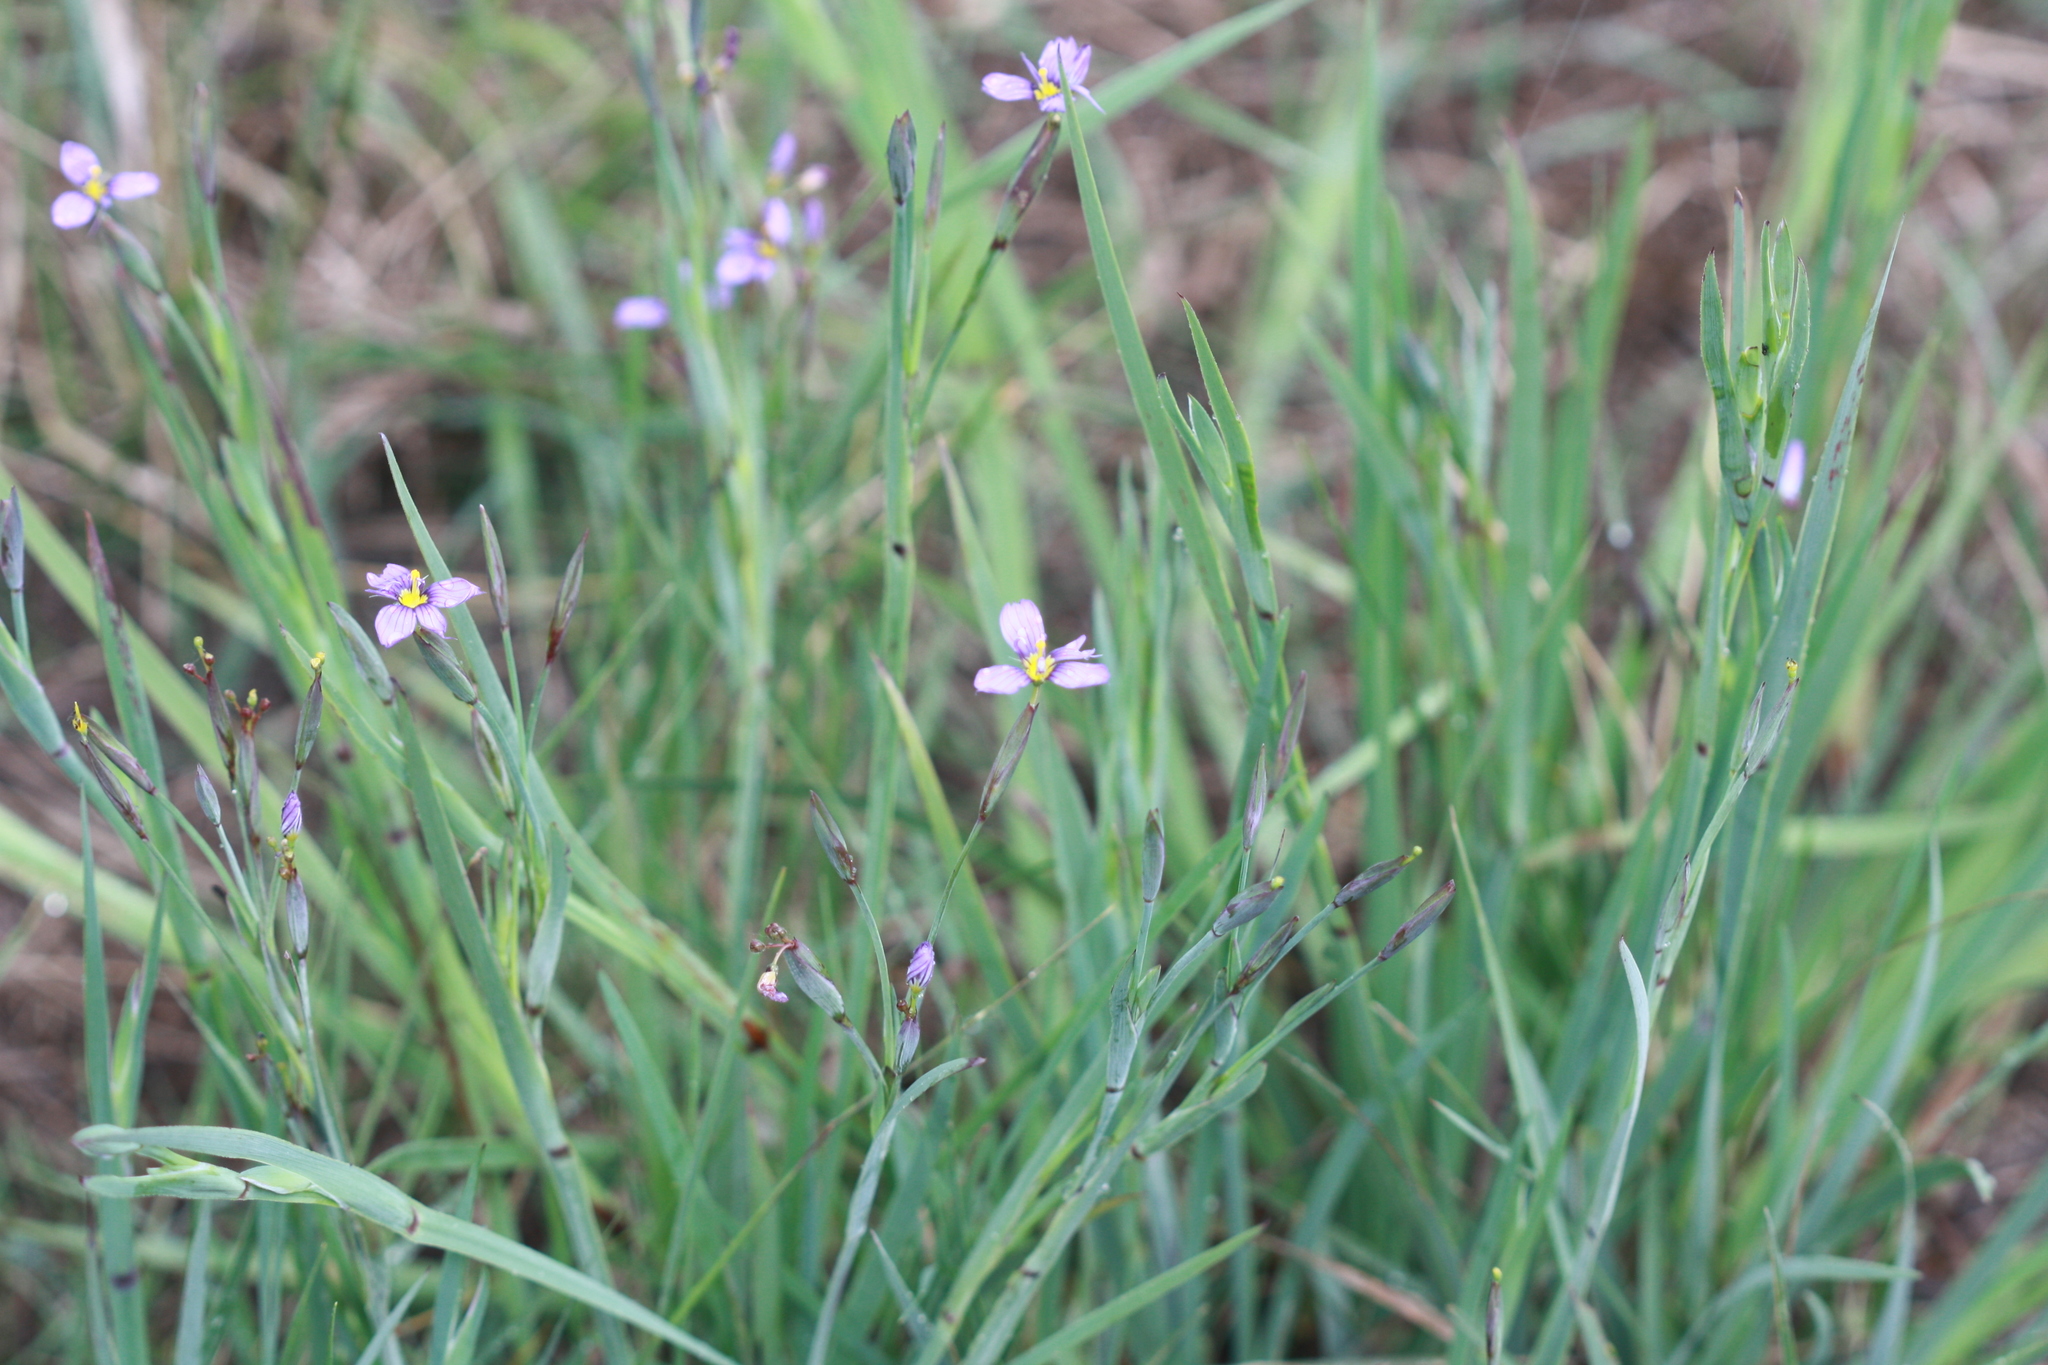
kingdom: Plantae
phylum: Tracheophyta
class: Liliopsida
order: Asparagales
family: Iridaceae
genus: Sisyrinchium
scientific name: Sisyrinchium bellum
